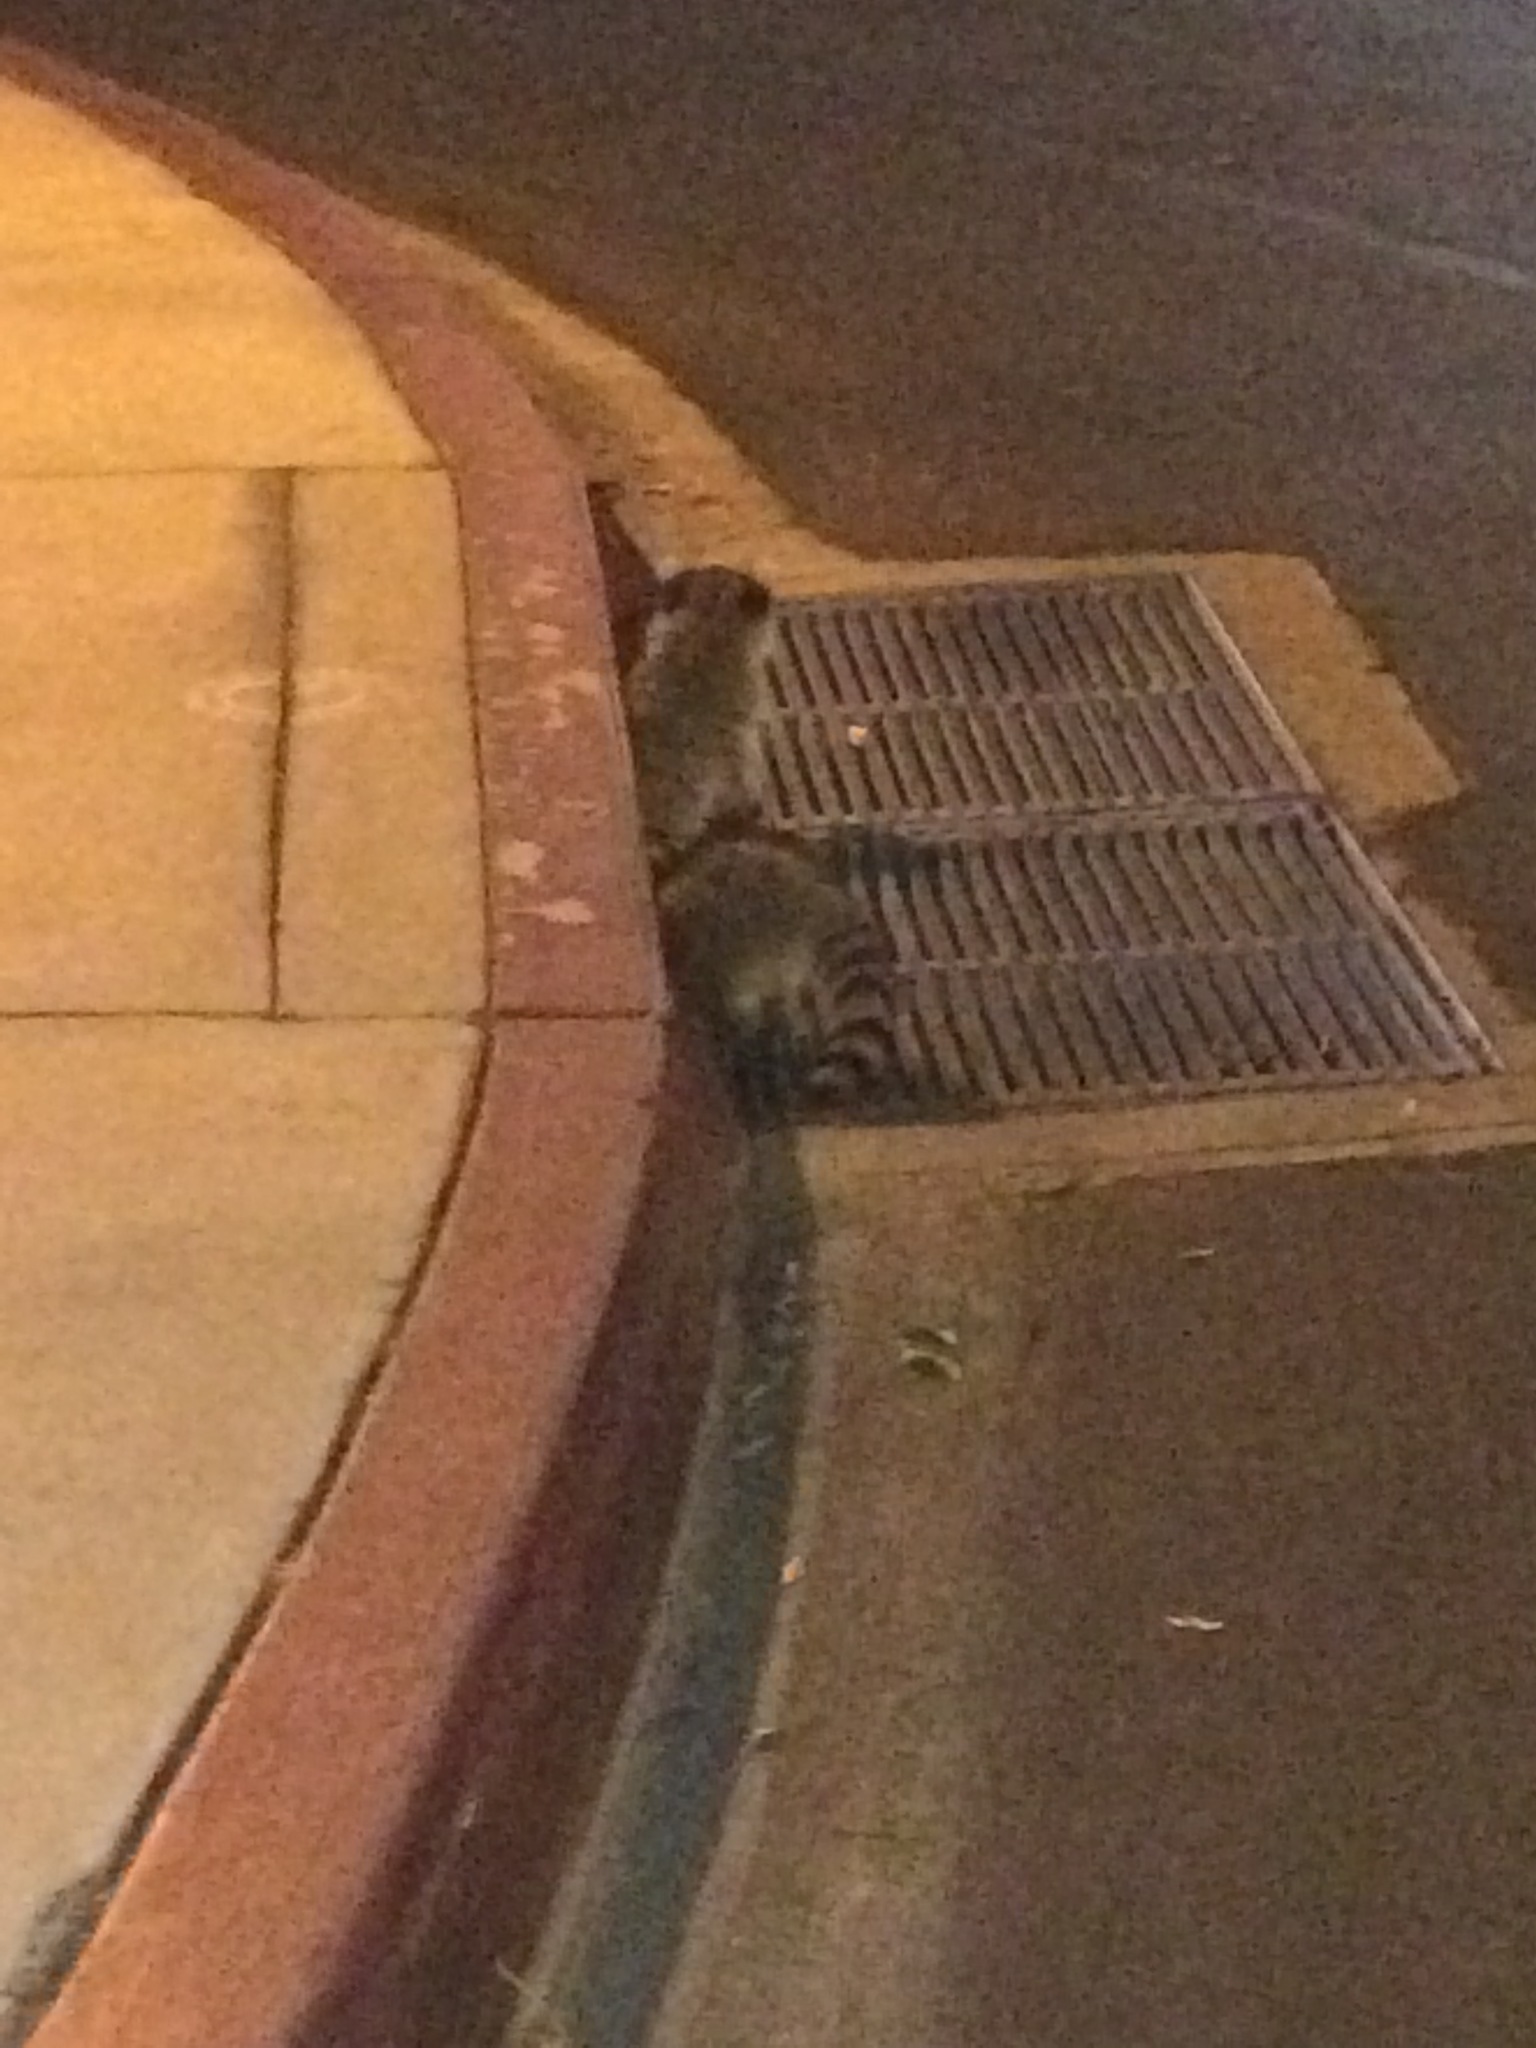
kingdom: Animalia
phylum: Chordata
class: Mammalia
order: Carnivora
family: Procyonidae
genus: Procyon
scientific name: Procyon lotor
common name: Raccoon
